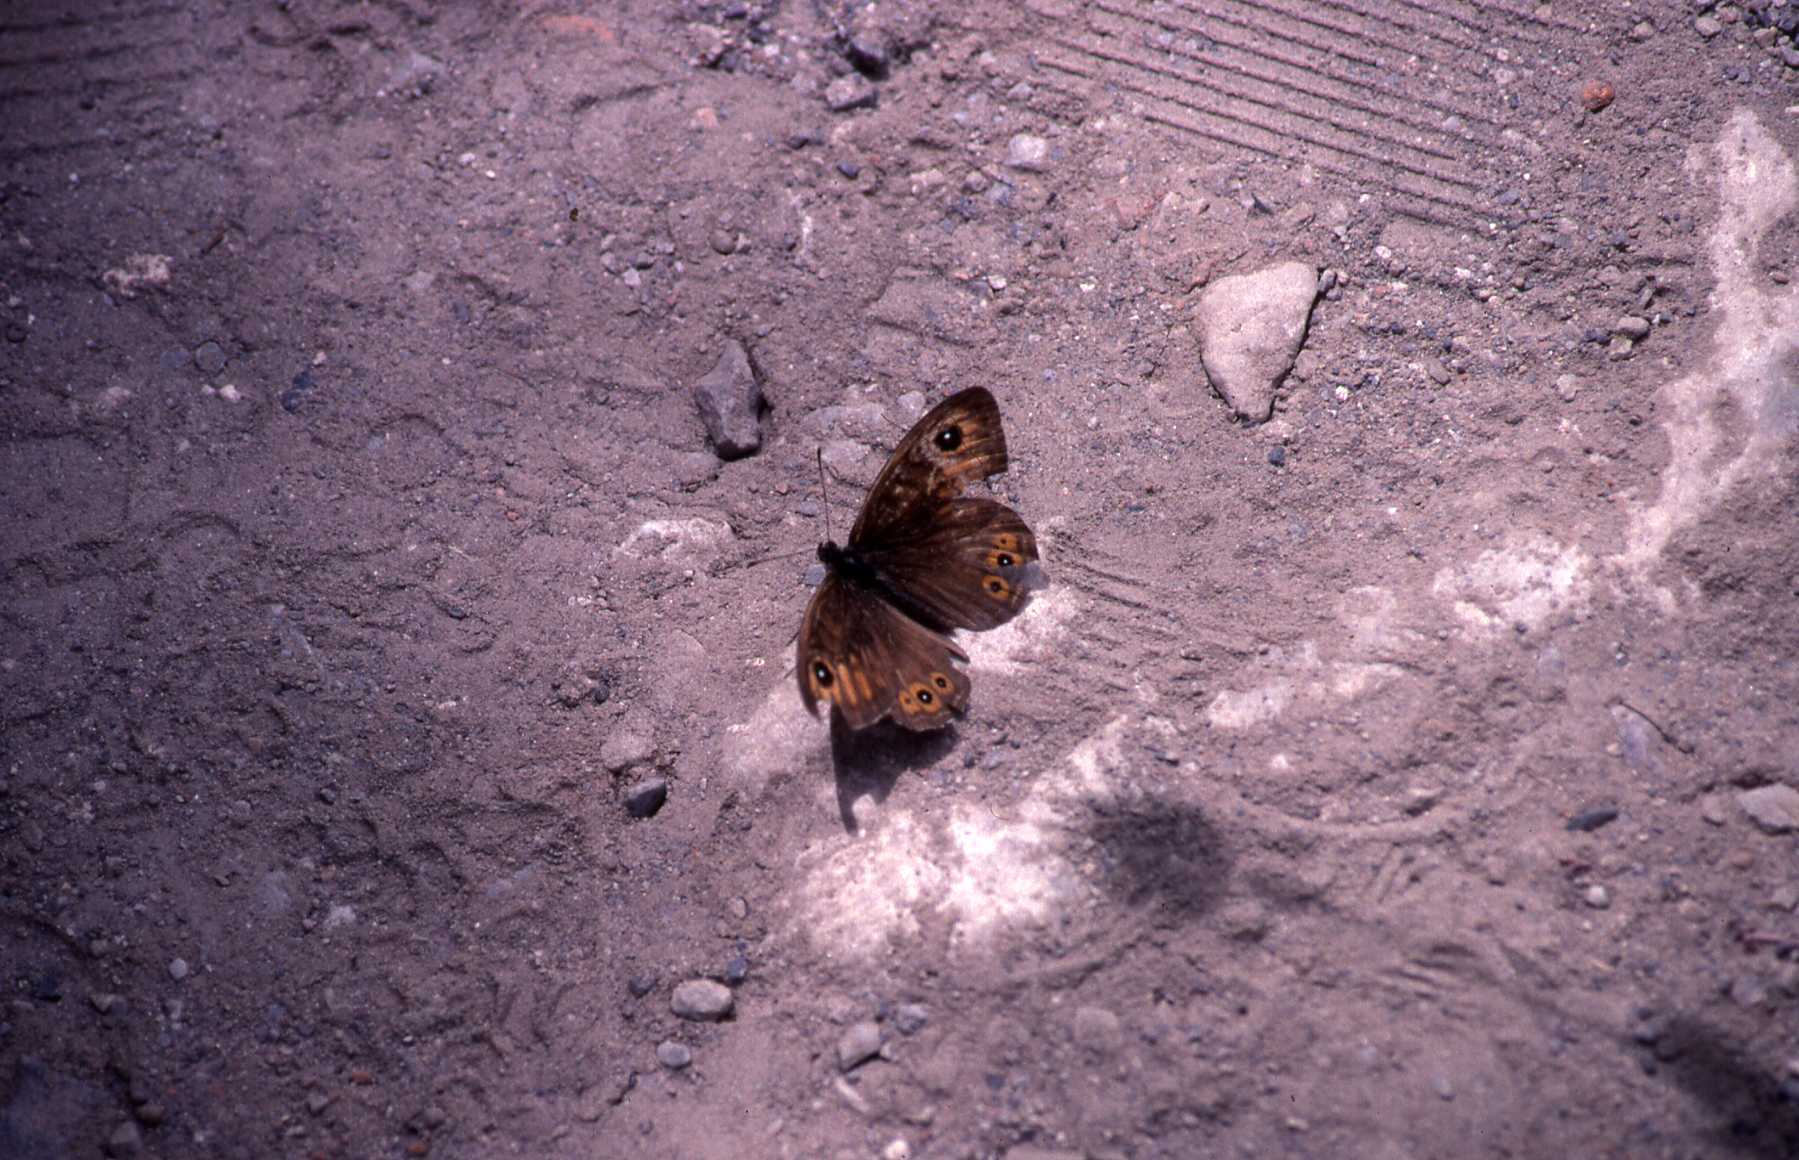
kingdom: Animalia
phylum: Arthropoda
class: Insecta
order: Lepidoptera
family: Nymphalidae
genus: Pararge
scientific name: Pararge Lasiommata maera
